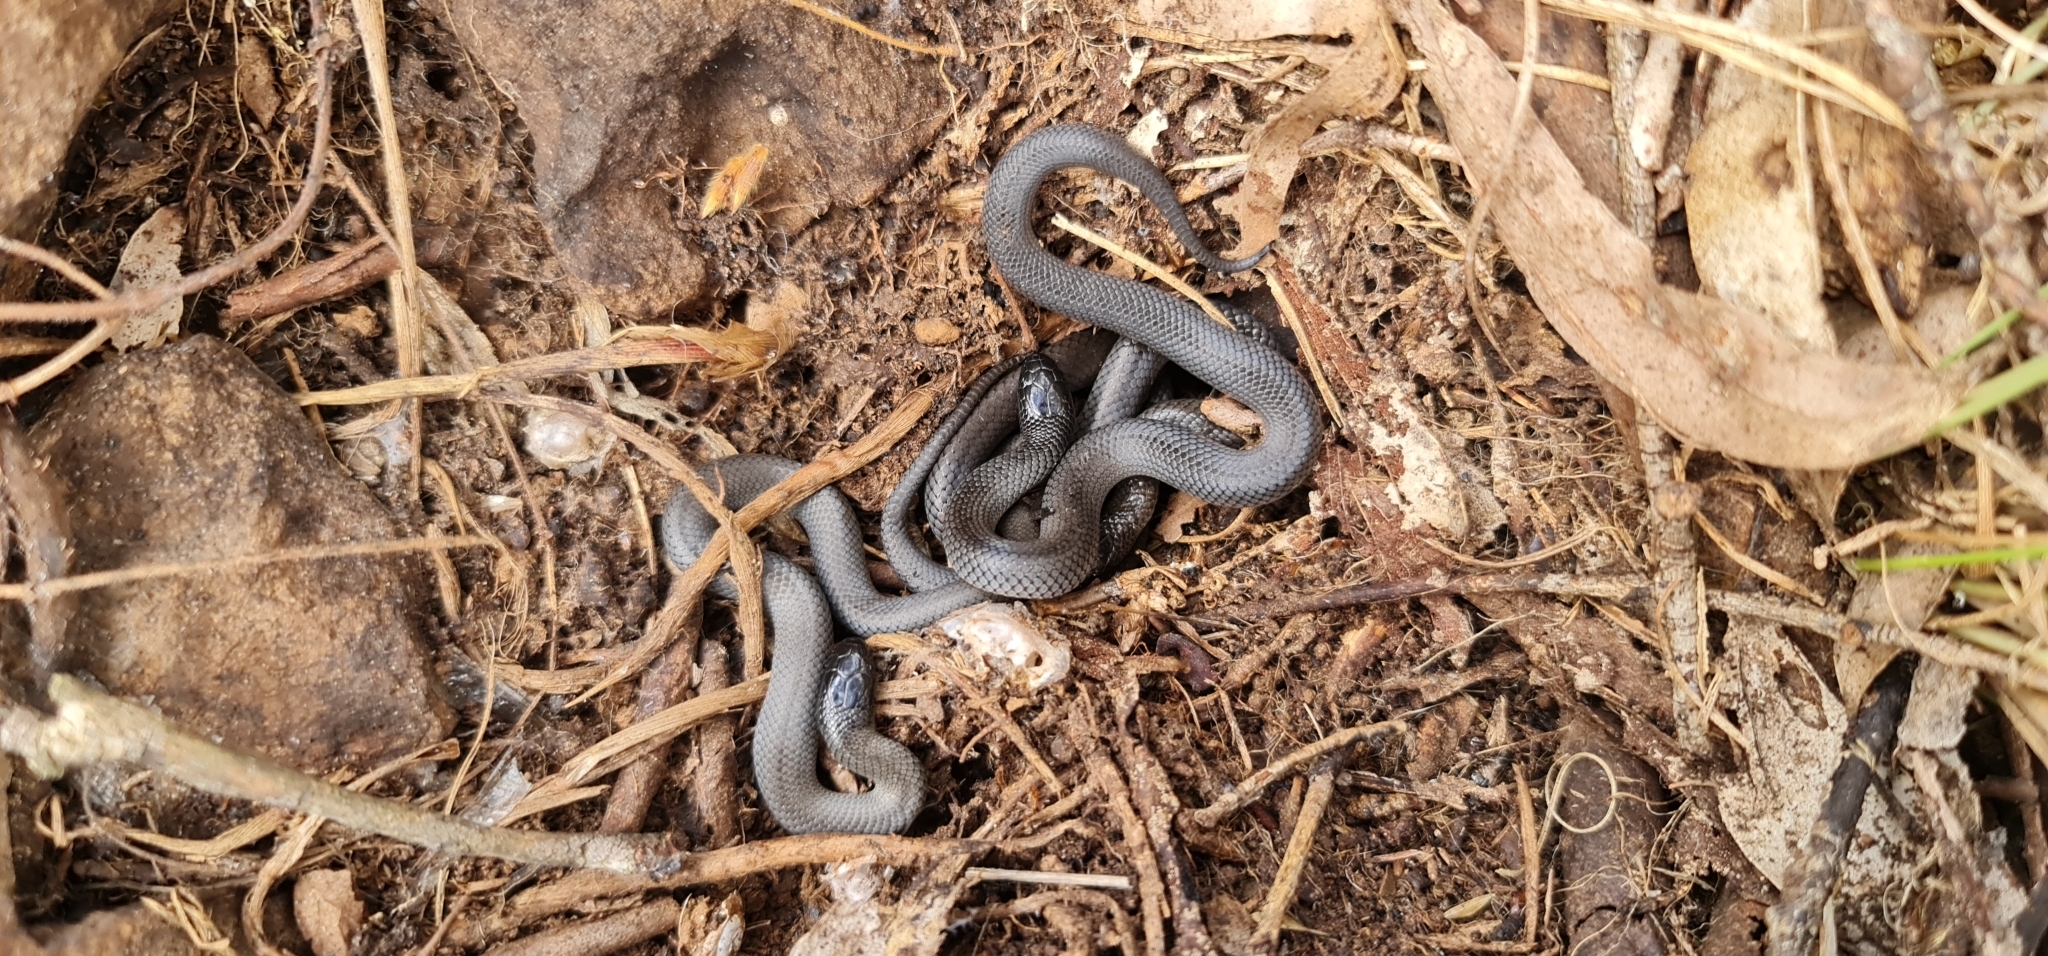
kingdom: Animalia
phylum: Chordata
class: Squamata
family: Elapidae
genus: Cryptophis
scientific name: Cryptophis nigrescens
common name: Eastern small-eyed snake
